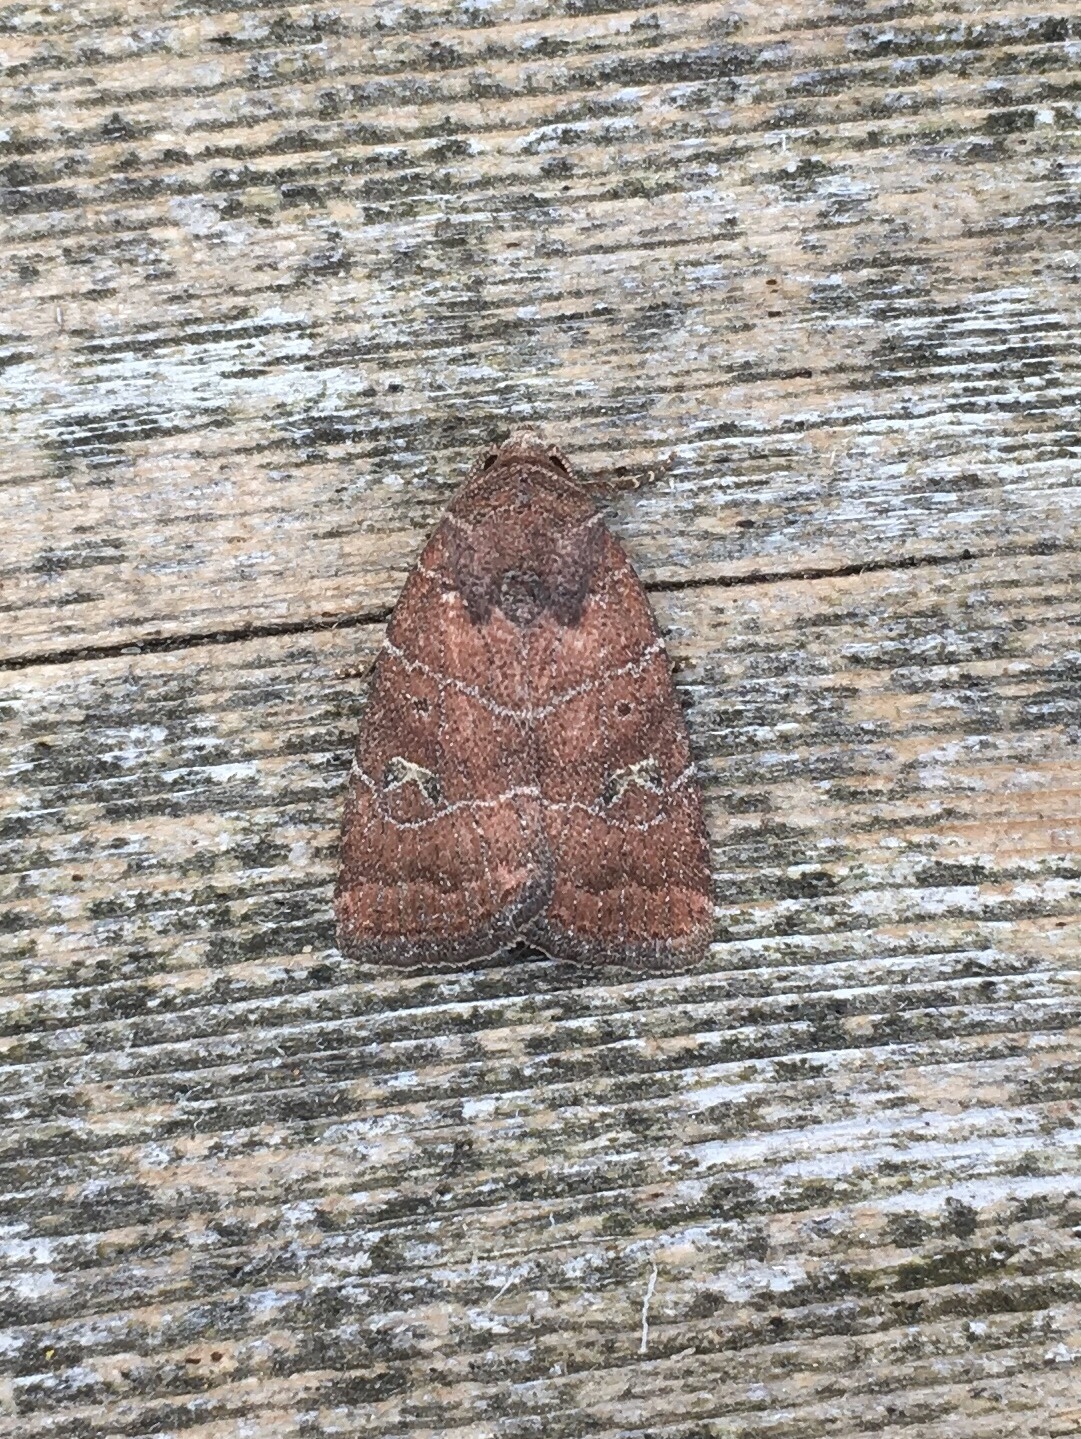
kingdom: Animalia
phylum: Arthropoda
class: Insecta
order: Lepidoptera
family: Noctuidae
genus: Elaphria
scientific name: Elaphria grata
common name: Grateful midget moth
